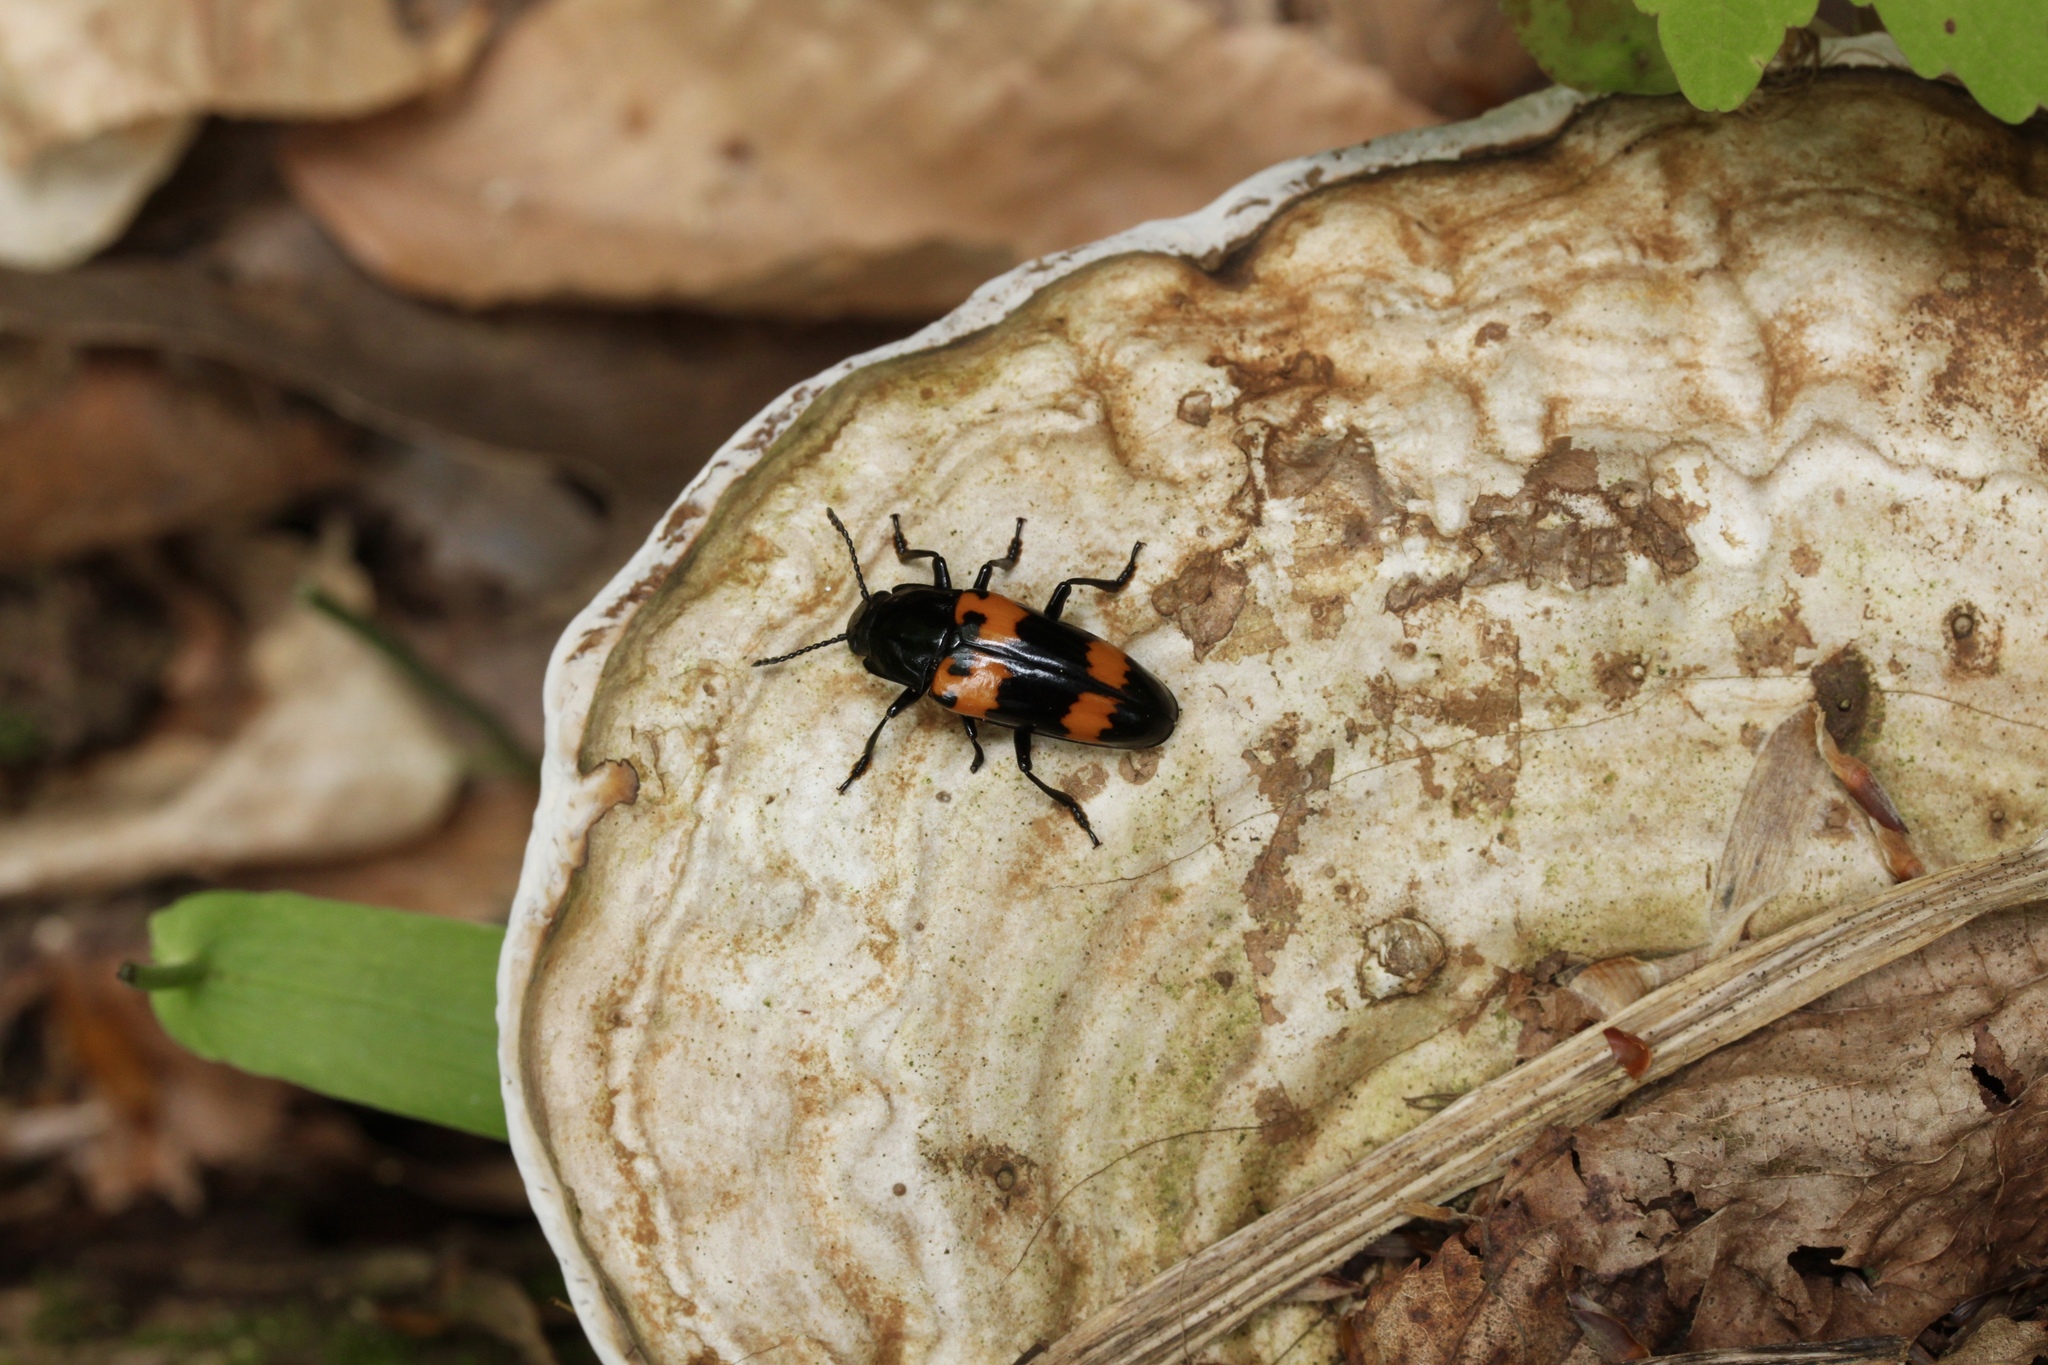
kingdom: Animalia
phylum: Arthropoda
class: Insecta
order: Coleoptera
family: Erotylidae
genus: Megalodacne
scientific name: Megalodacne heros
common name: Pleasing fungus beetle
